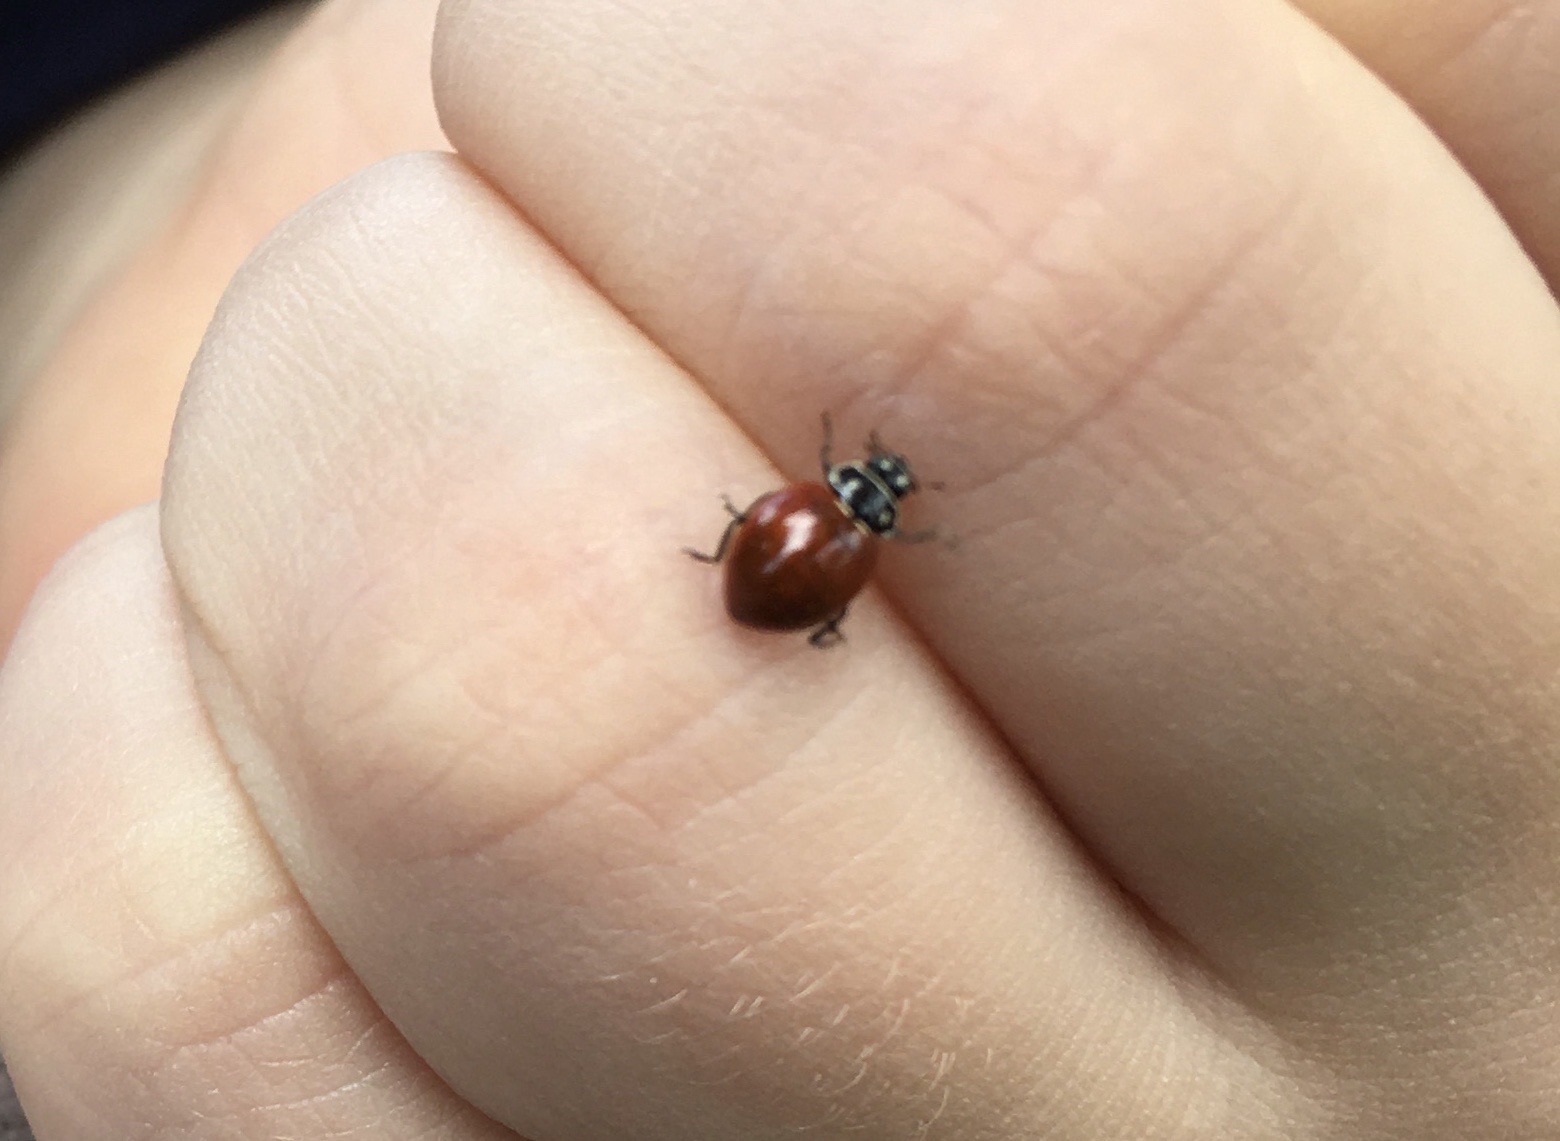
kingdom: Animalia
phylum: Arthropoda
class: Insecta
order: Coleoptera
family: Coccinellidae
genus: Cycloneda
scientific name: Cycloneda sanguinea
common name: Ladybird beetle
